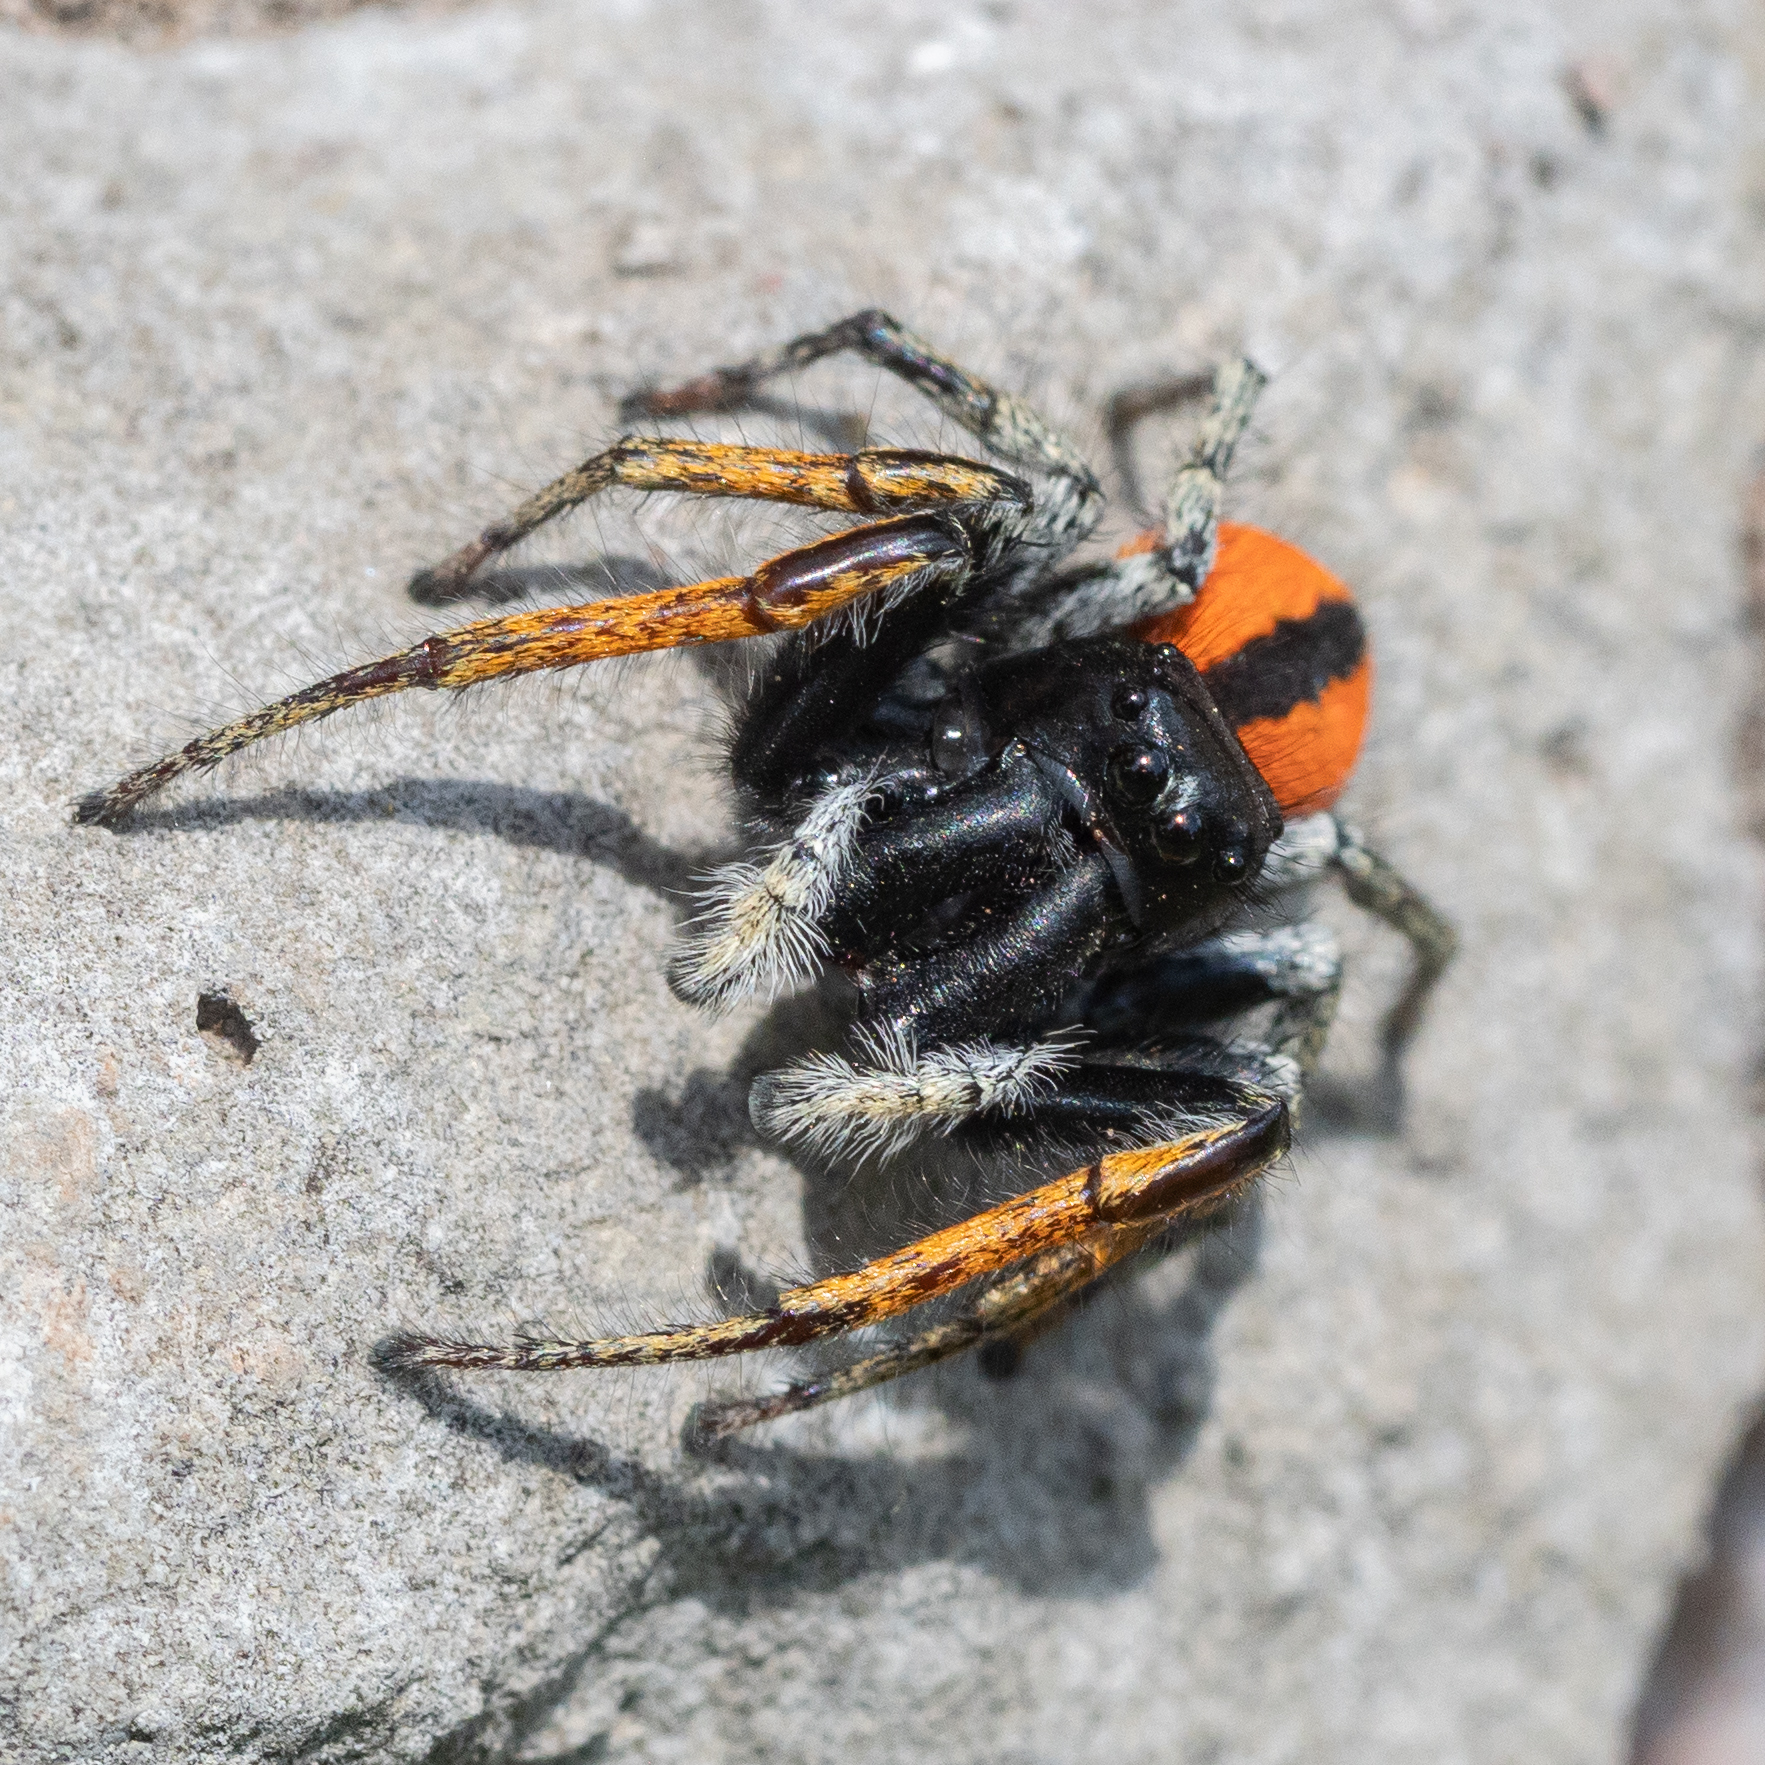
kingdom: Animalia
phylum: Arthropoda
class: Arachnida
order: Araneae
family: Salticidae
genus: Philaeus
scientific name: Philaeus chrysops
